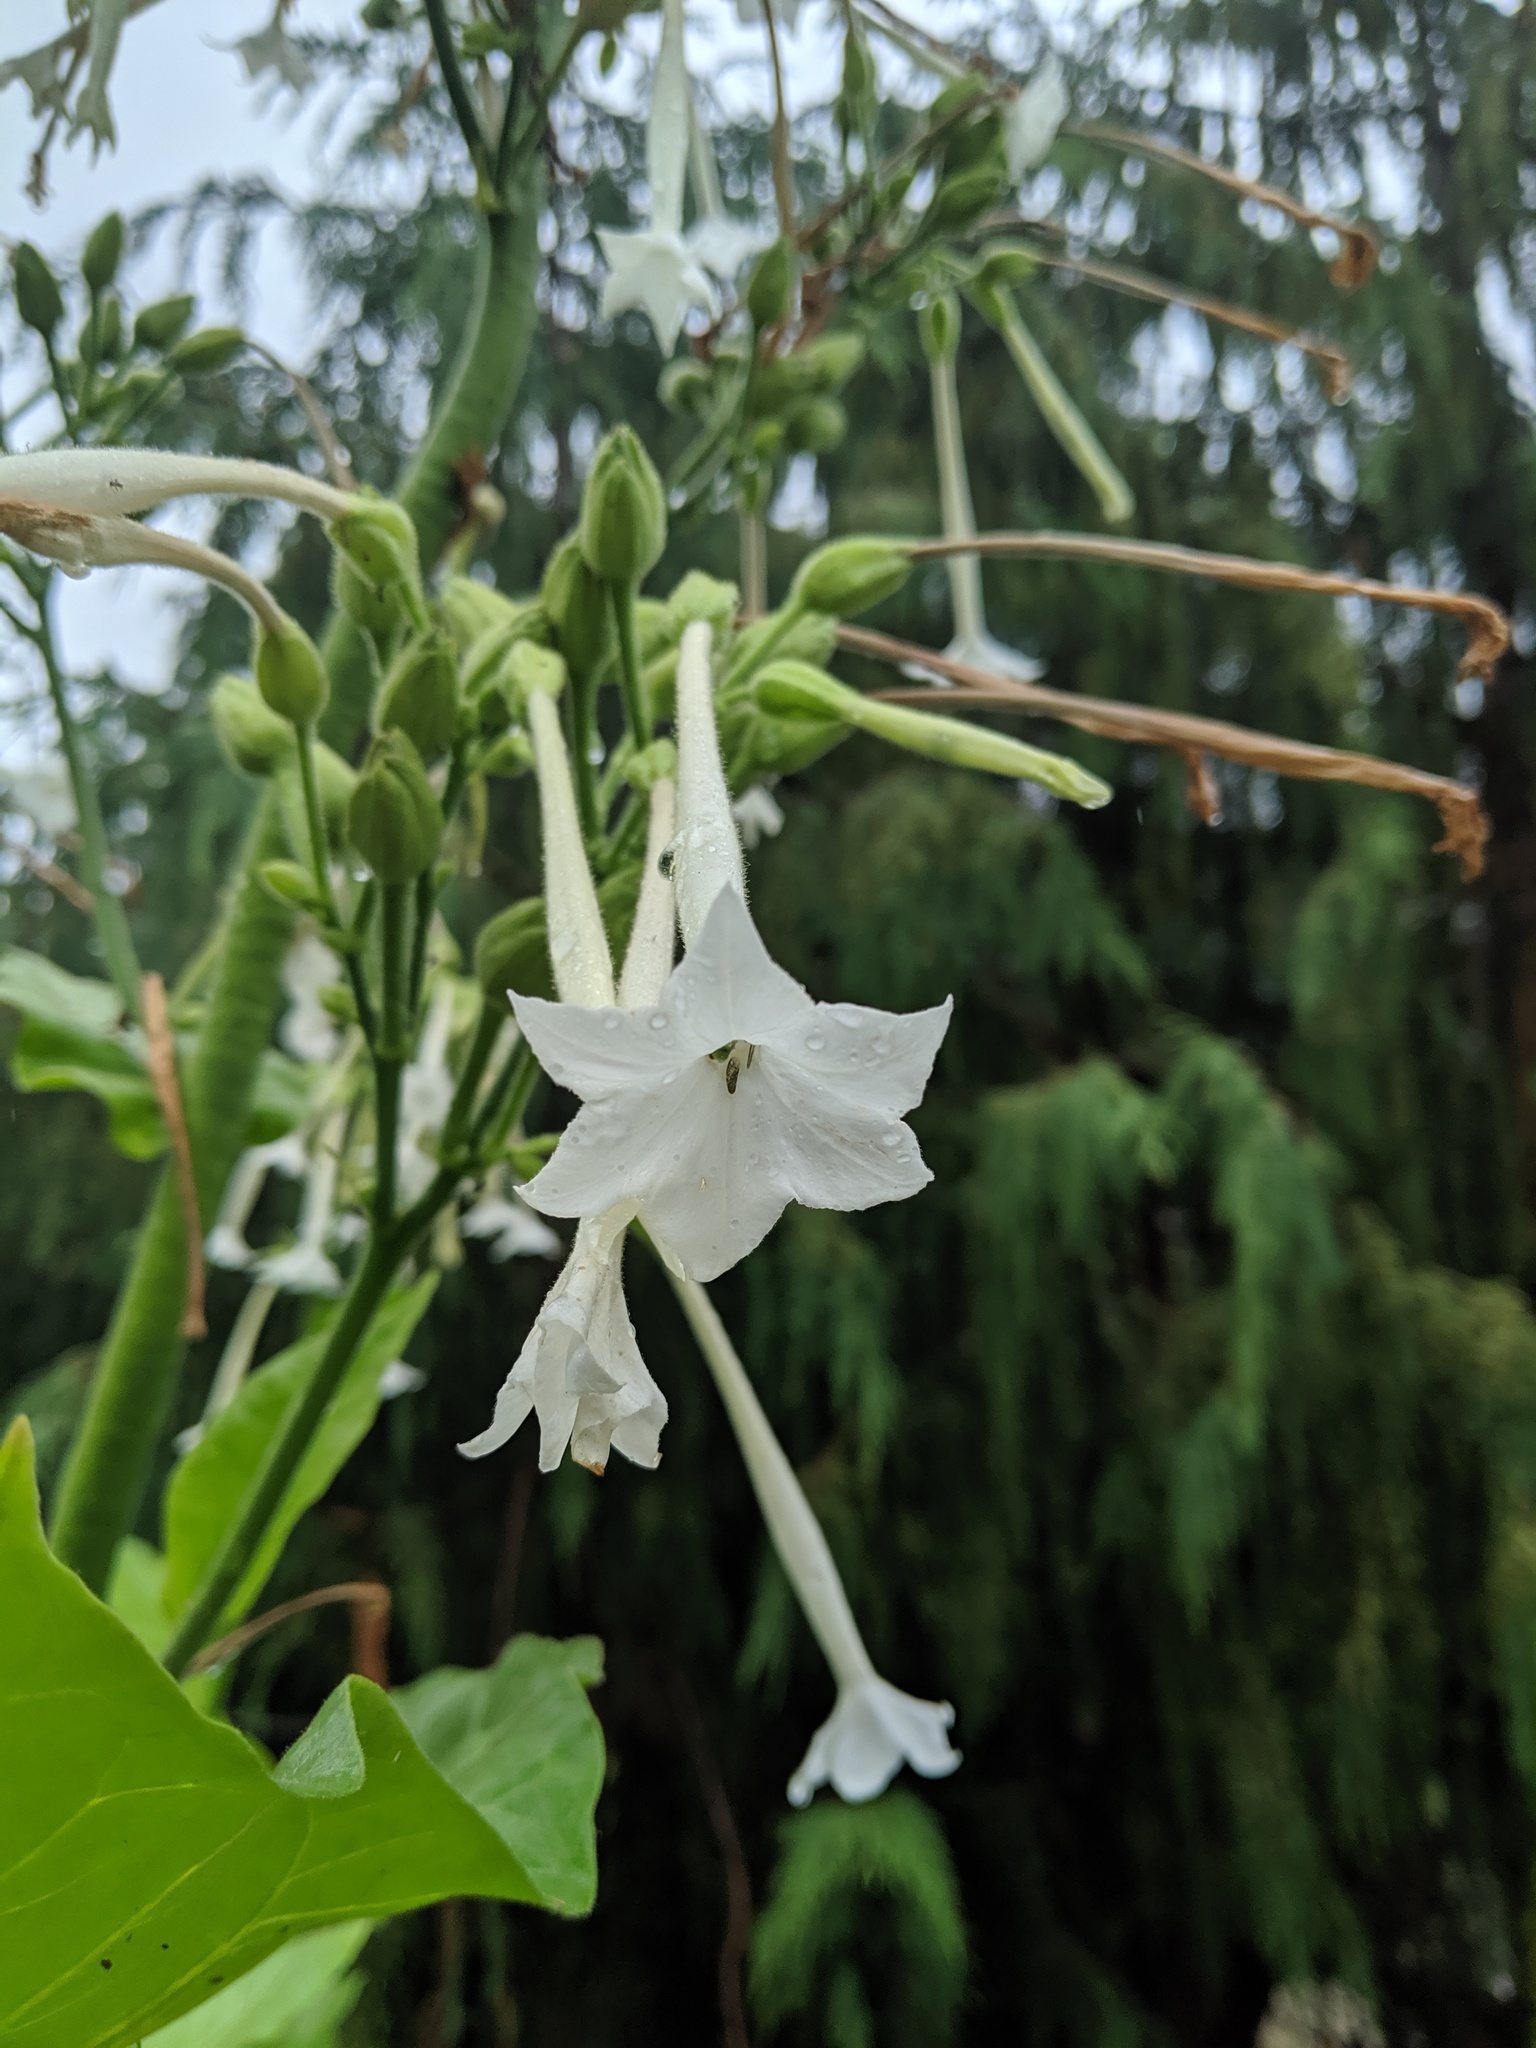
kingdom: Plantae
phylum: Tracheophyta
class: Magnoliopsida
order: Solanales
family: Solanaceae
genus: Nicotiana
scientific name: Nicotiana sylvestris
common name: Flowering tobacco
